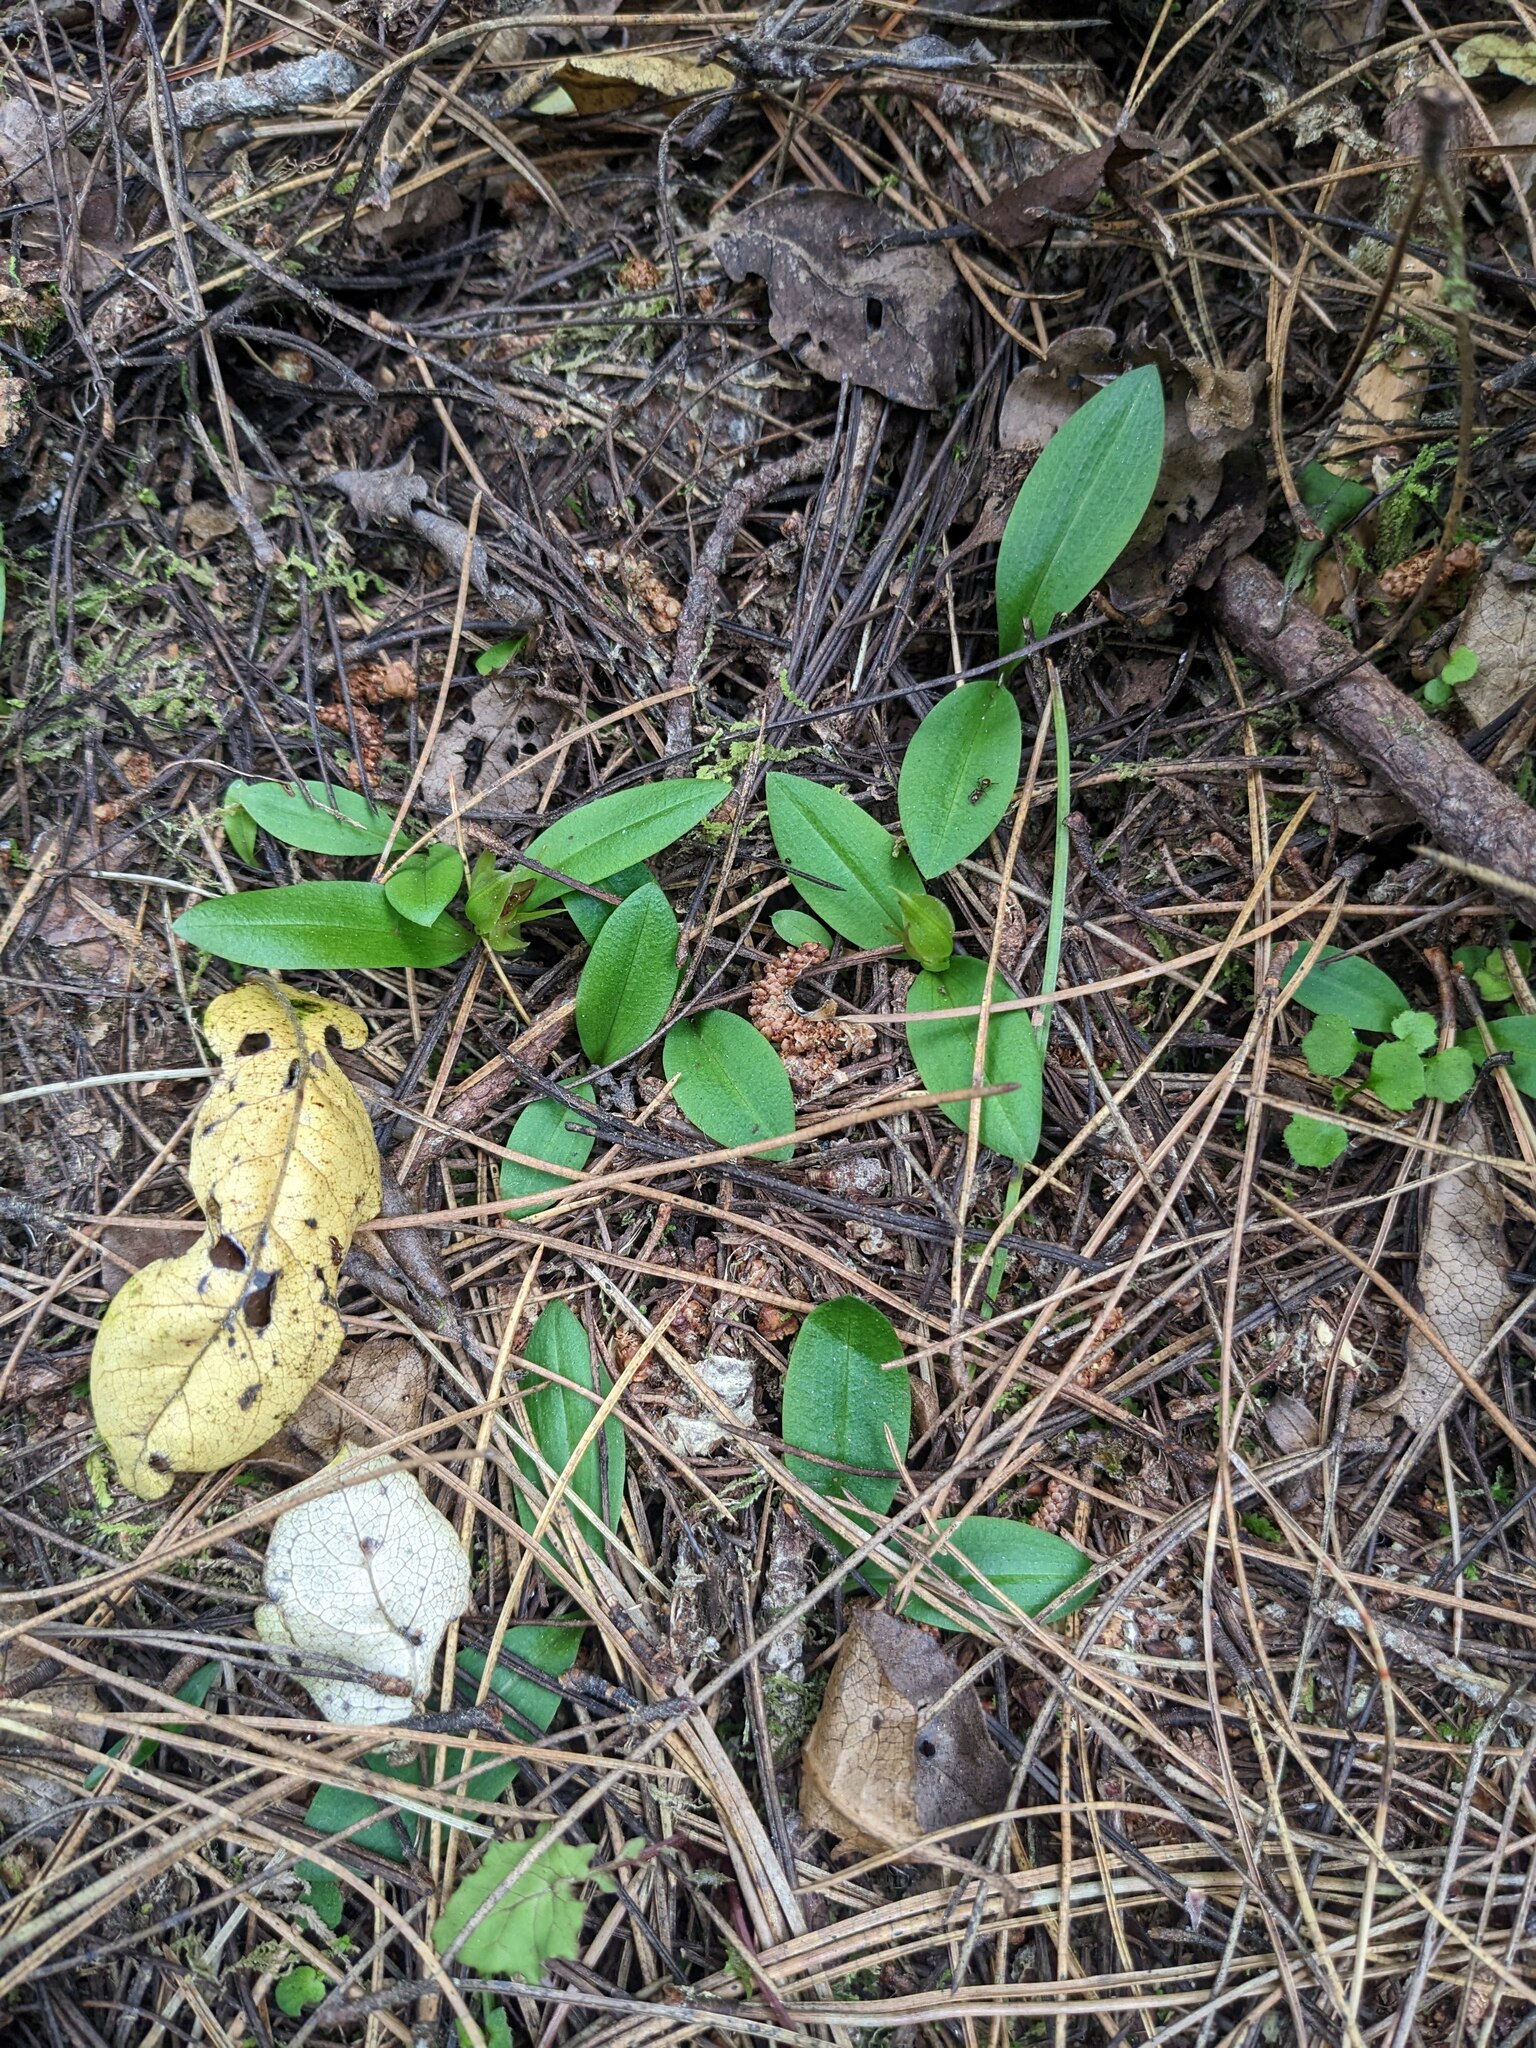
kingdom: Plantae
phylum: Tracheophyta
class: Liliopsida
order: Asparagales
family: Orchidaceae
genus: Chiloglottis
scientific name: Chiloglottis cornuta
